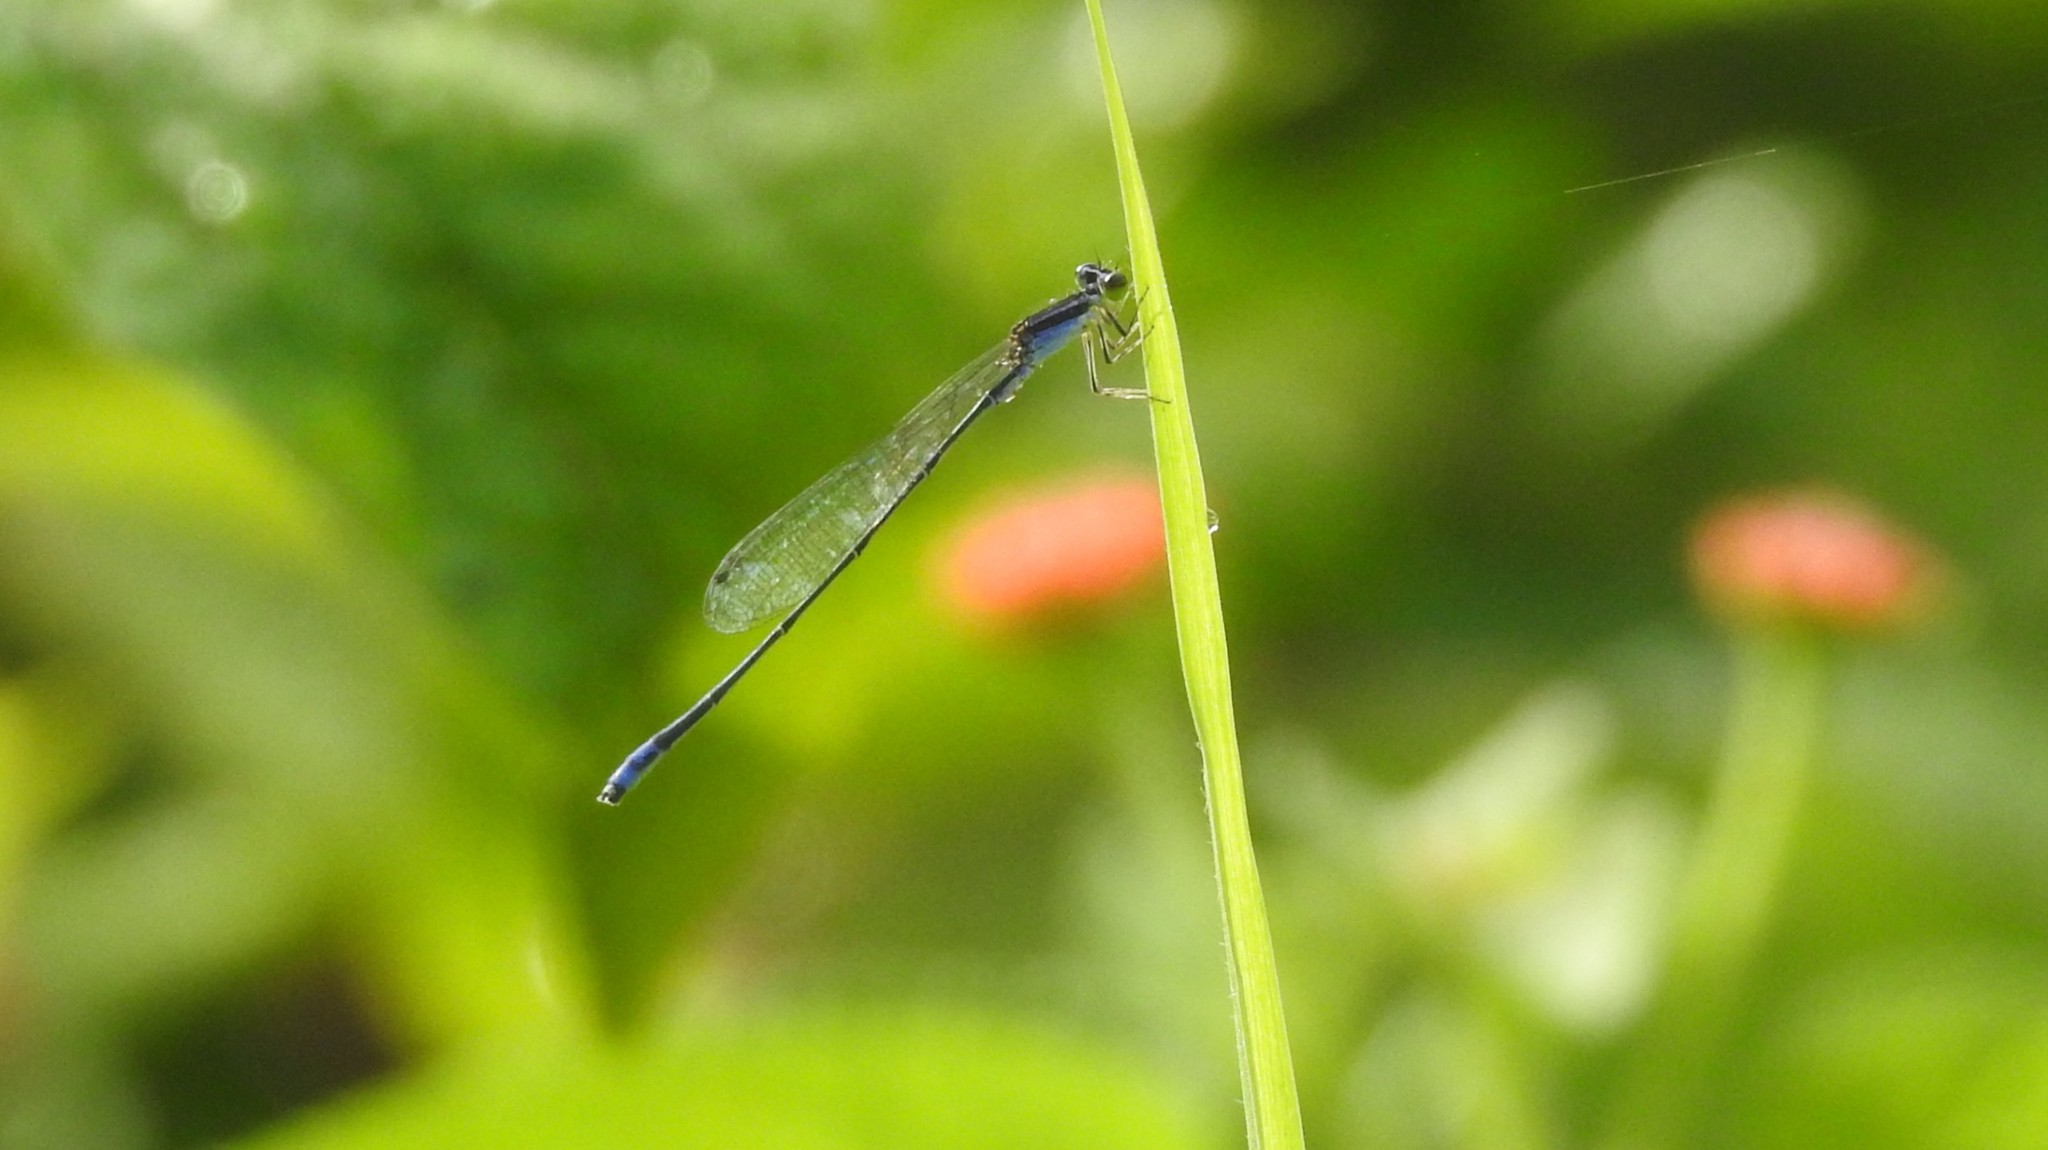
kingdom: Animalia
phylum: Arthropoda
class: Insecta
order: Odonata
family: Coenagrionidae
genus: Aciagrion
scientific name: Aciagrion approximans
